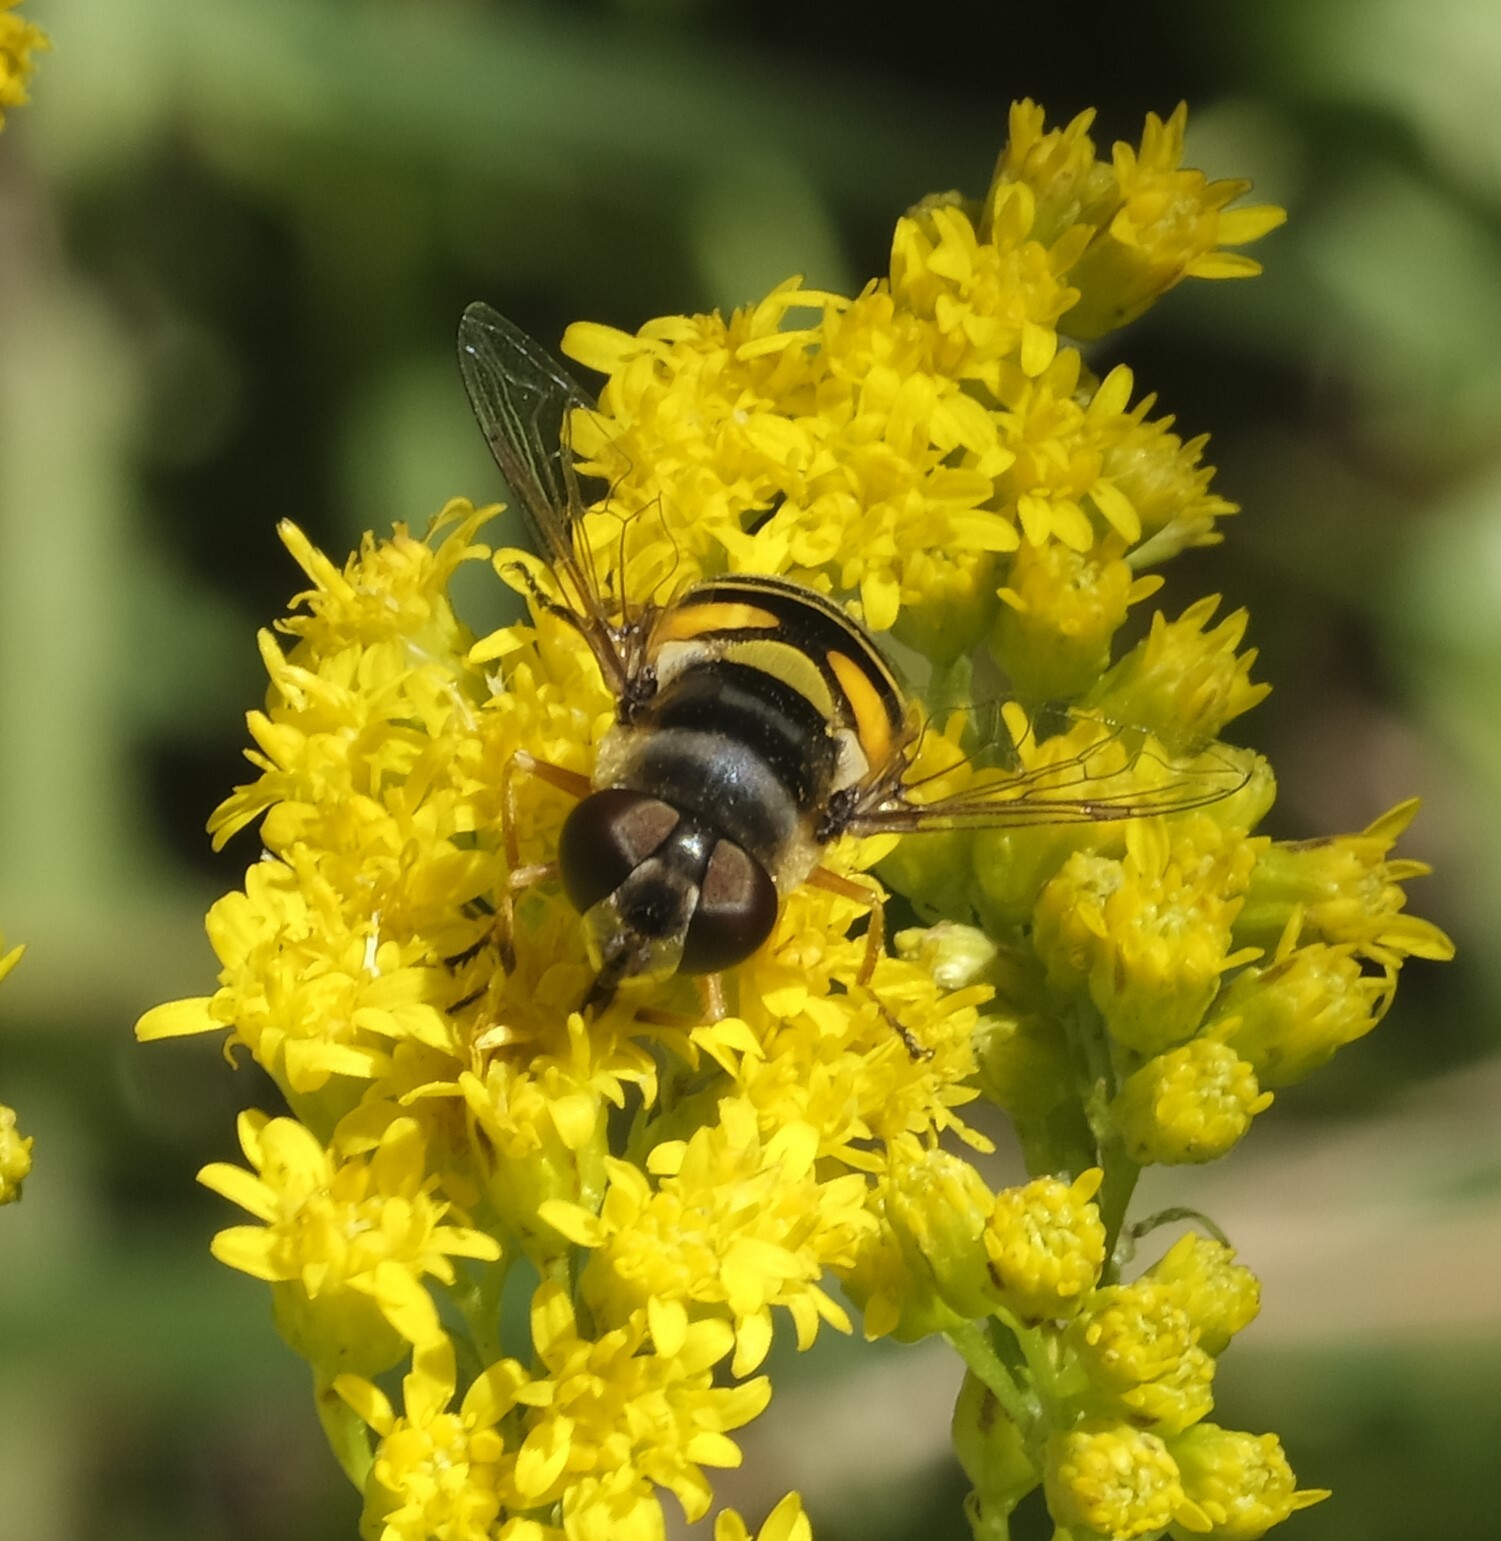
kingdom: Animalia
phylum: Arthropoda
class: Insecta
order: Diptera
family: Syrphidae
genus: Eristalis
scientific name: Eristalis transversa
